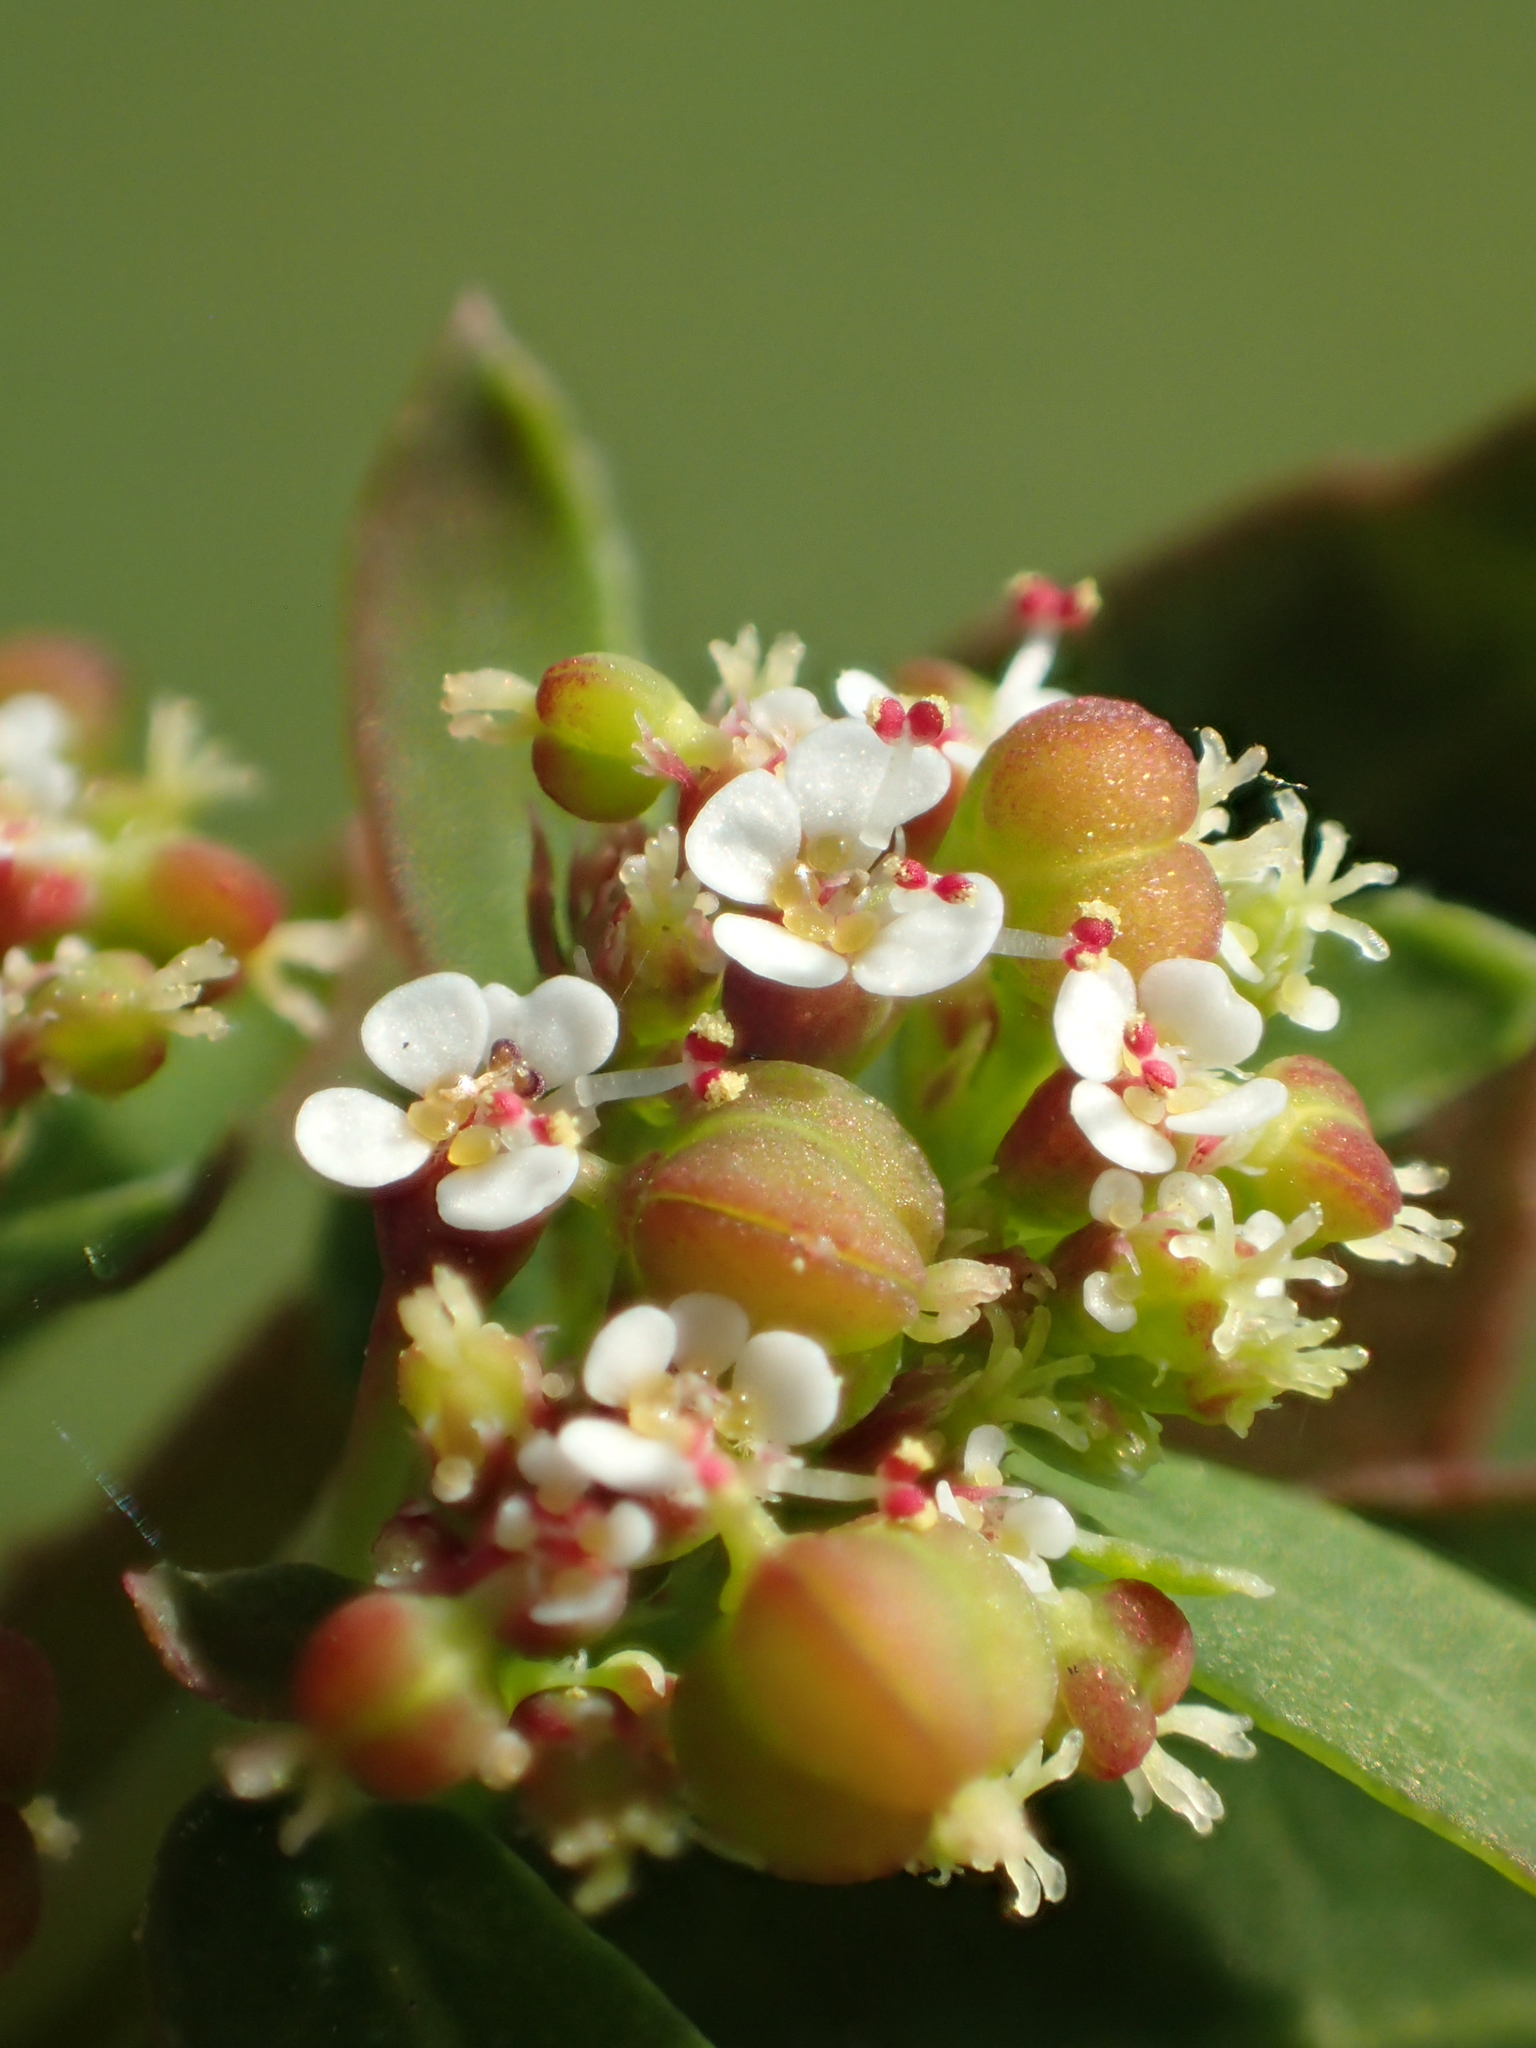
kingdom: Plantae
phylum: Tracheophyta
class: Magnoliopsida
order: Malpighiales
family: Euphorbiaceae
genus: Euphorbia
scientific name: Euphorbia hypericifolia
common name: Graceful sandmat
